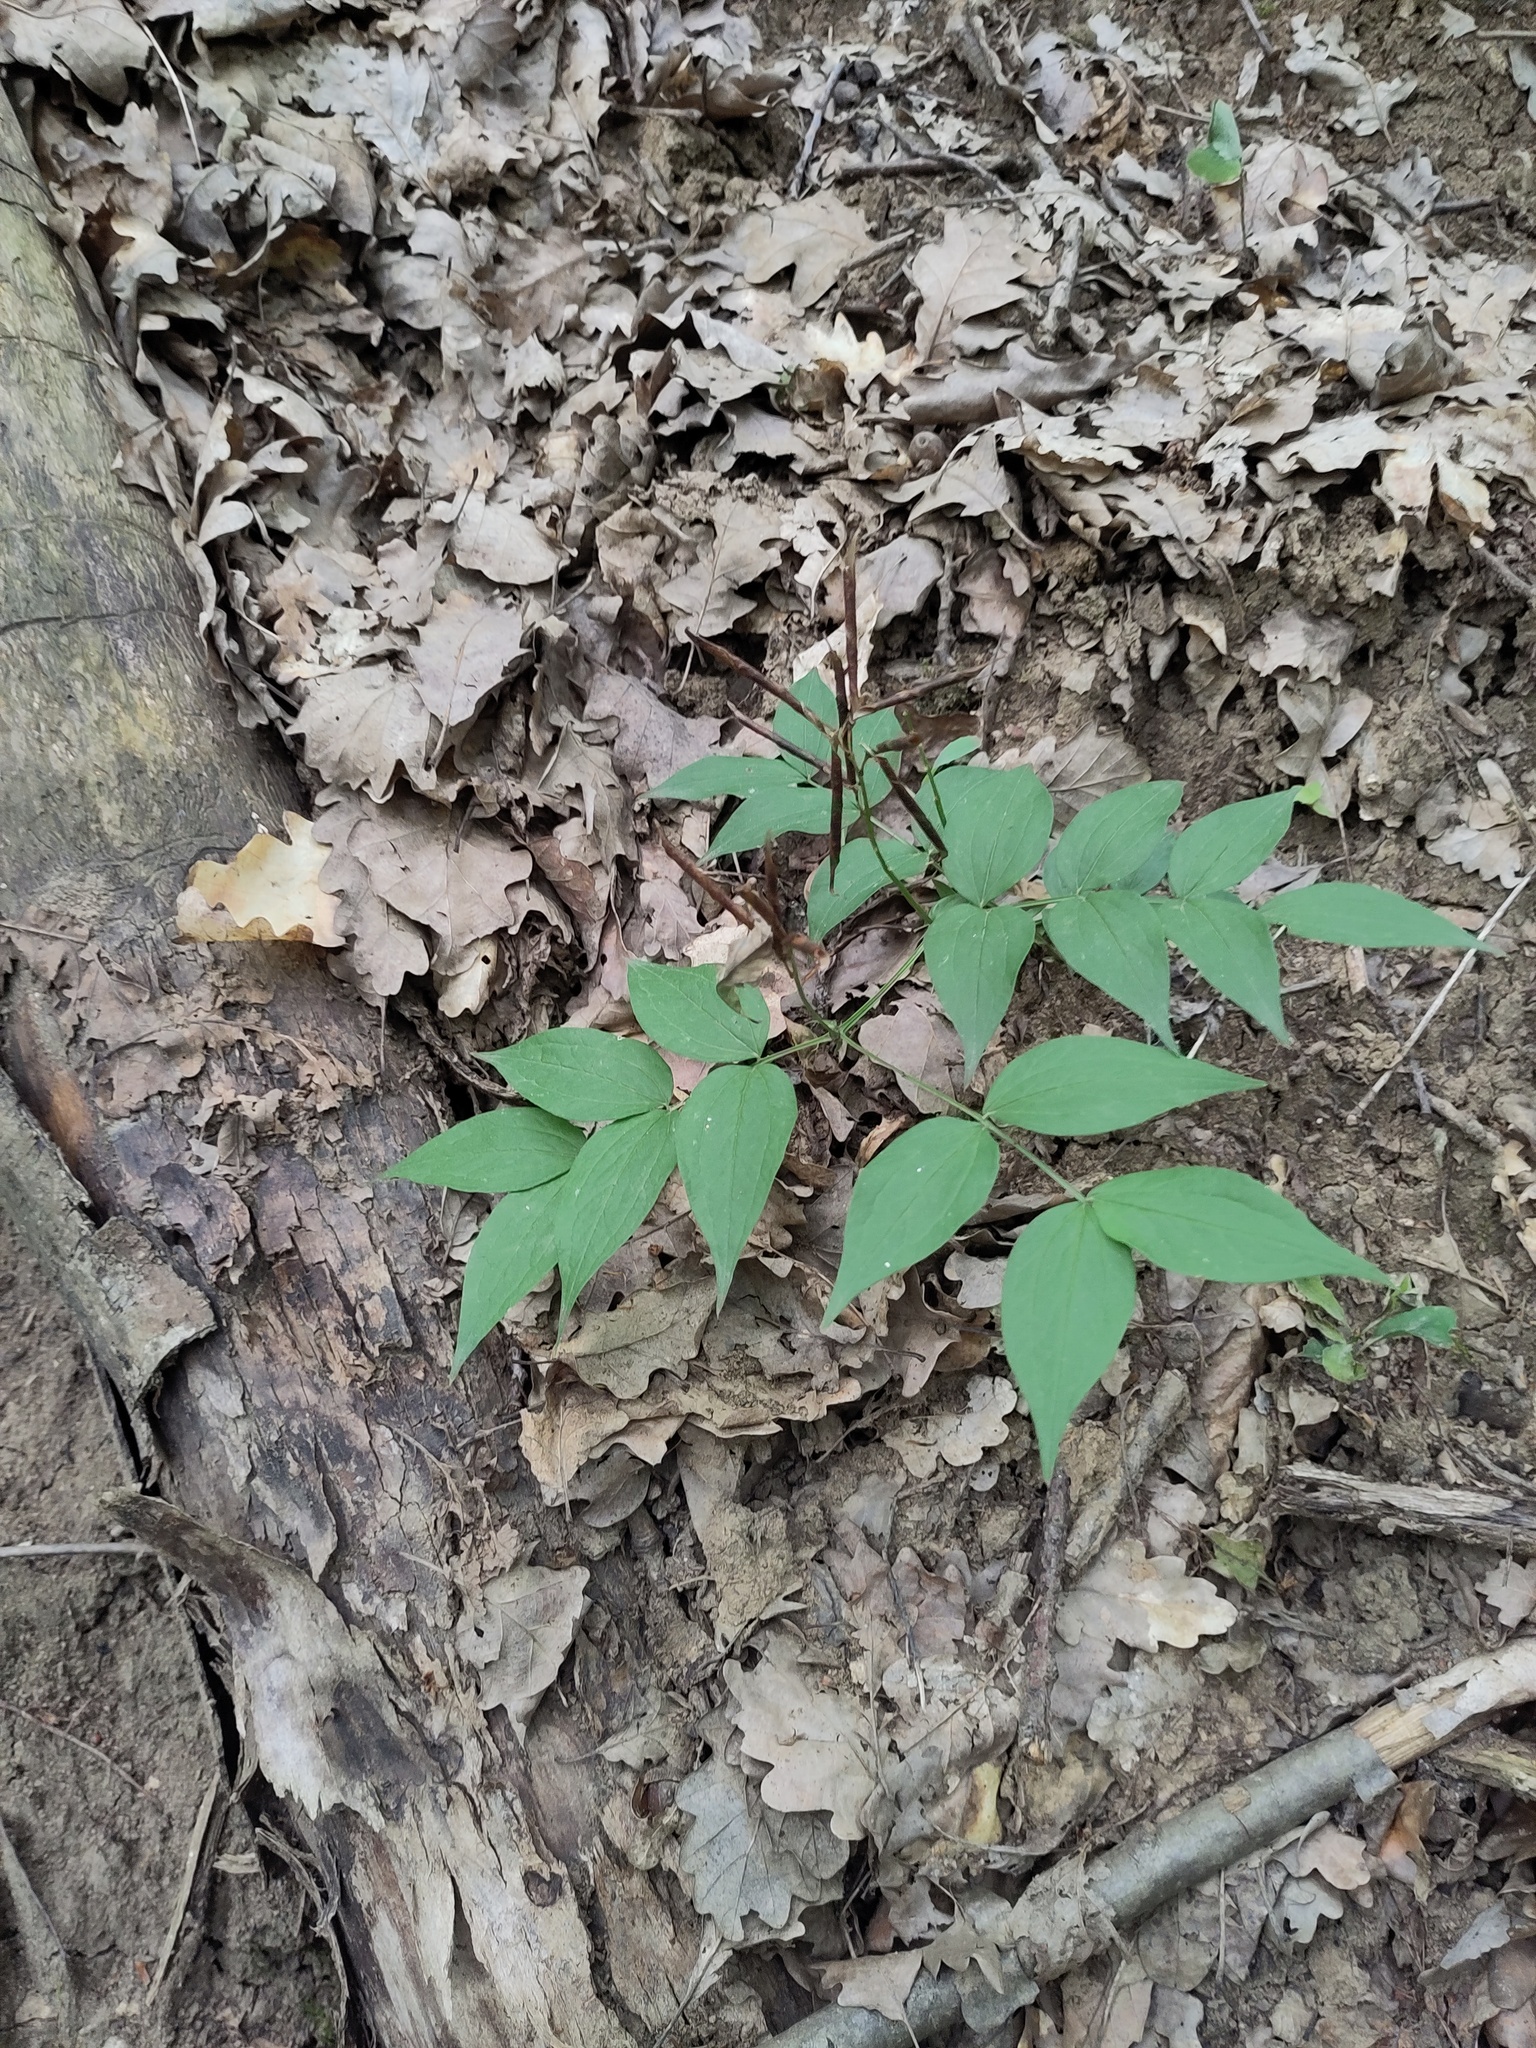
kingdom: Plantae
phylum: Tracheophyta
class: Magnoliopsida
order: Fabales
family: Fabaceae
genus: Lathyrus
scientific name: Lathyrus vernus
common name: Spring pea
